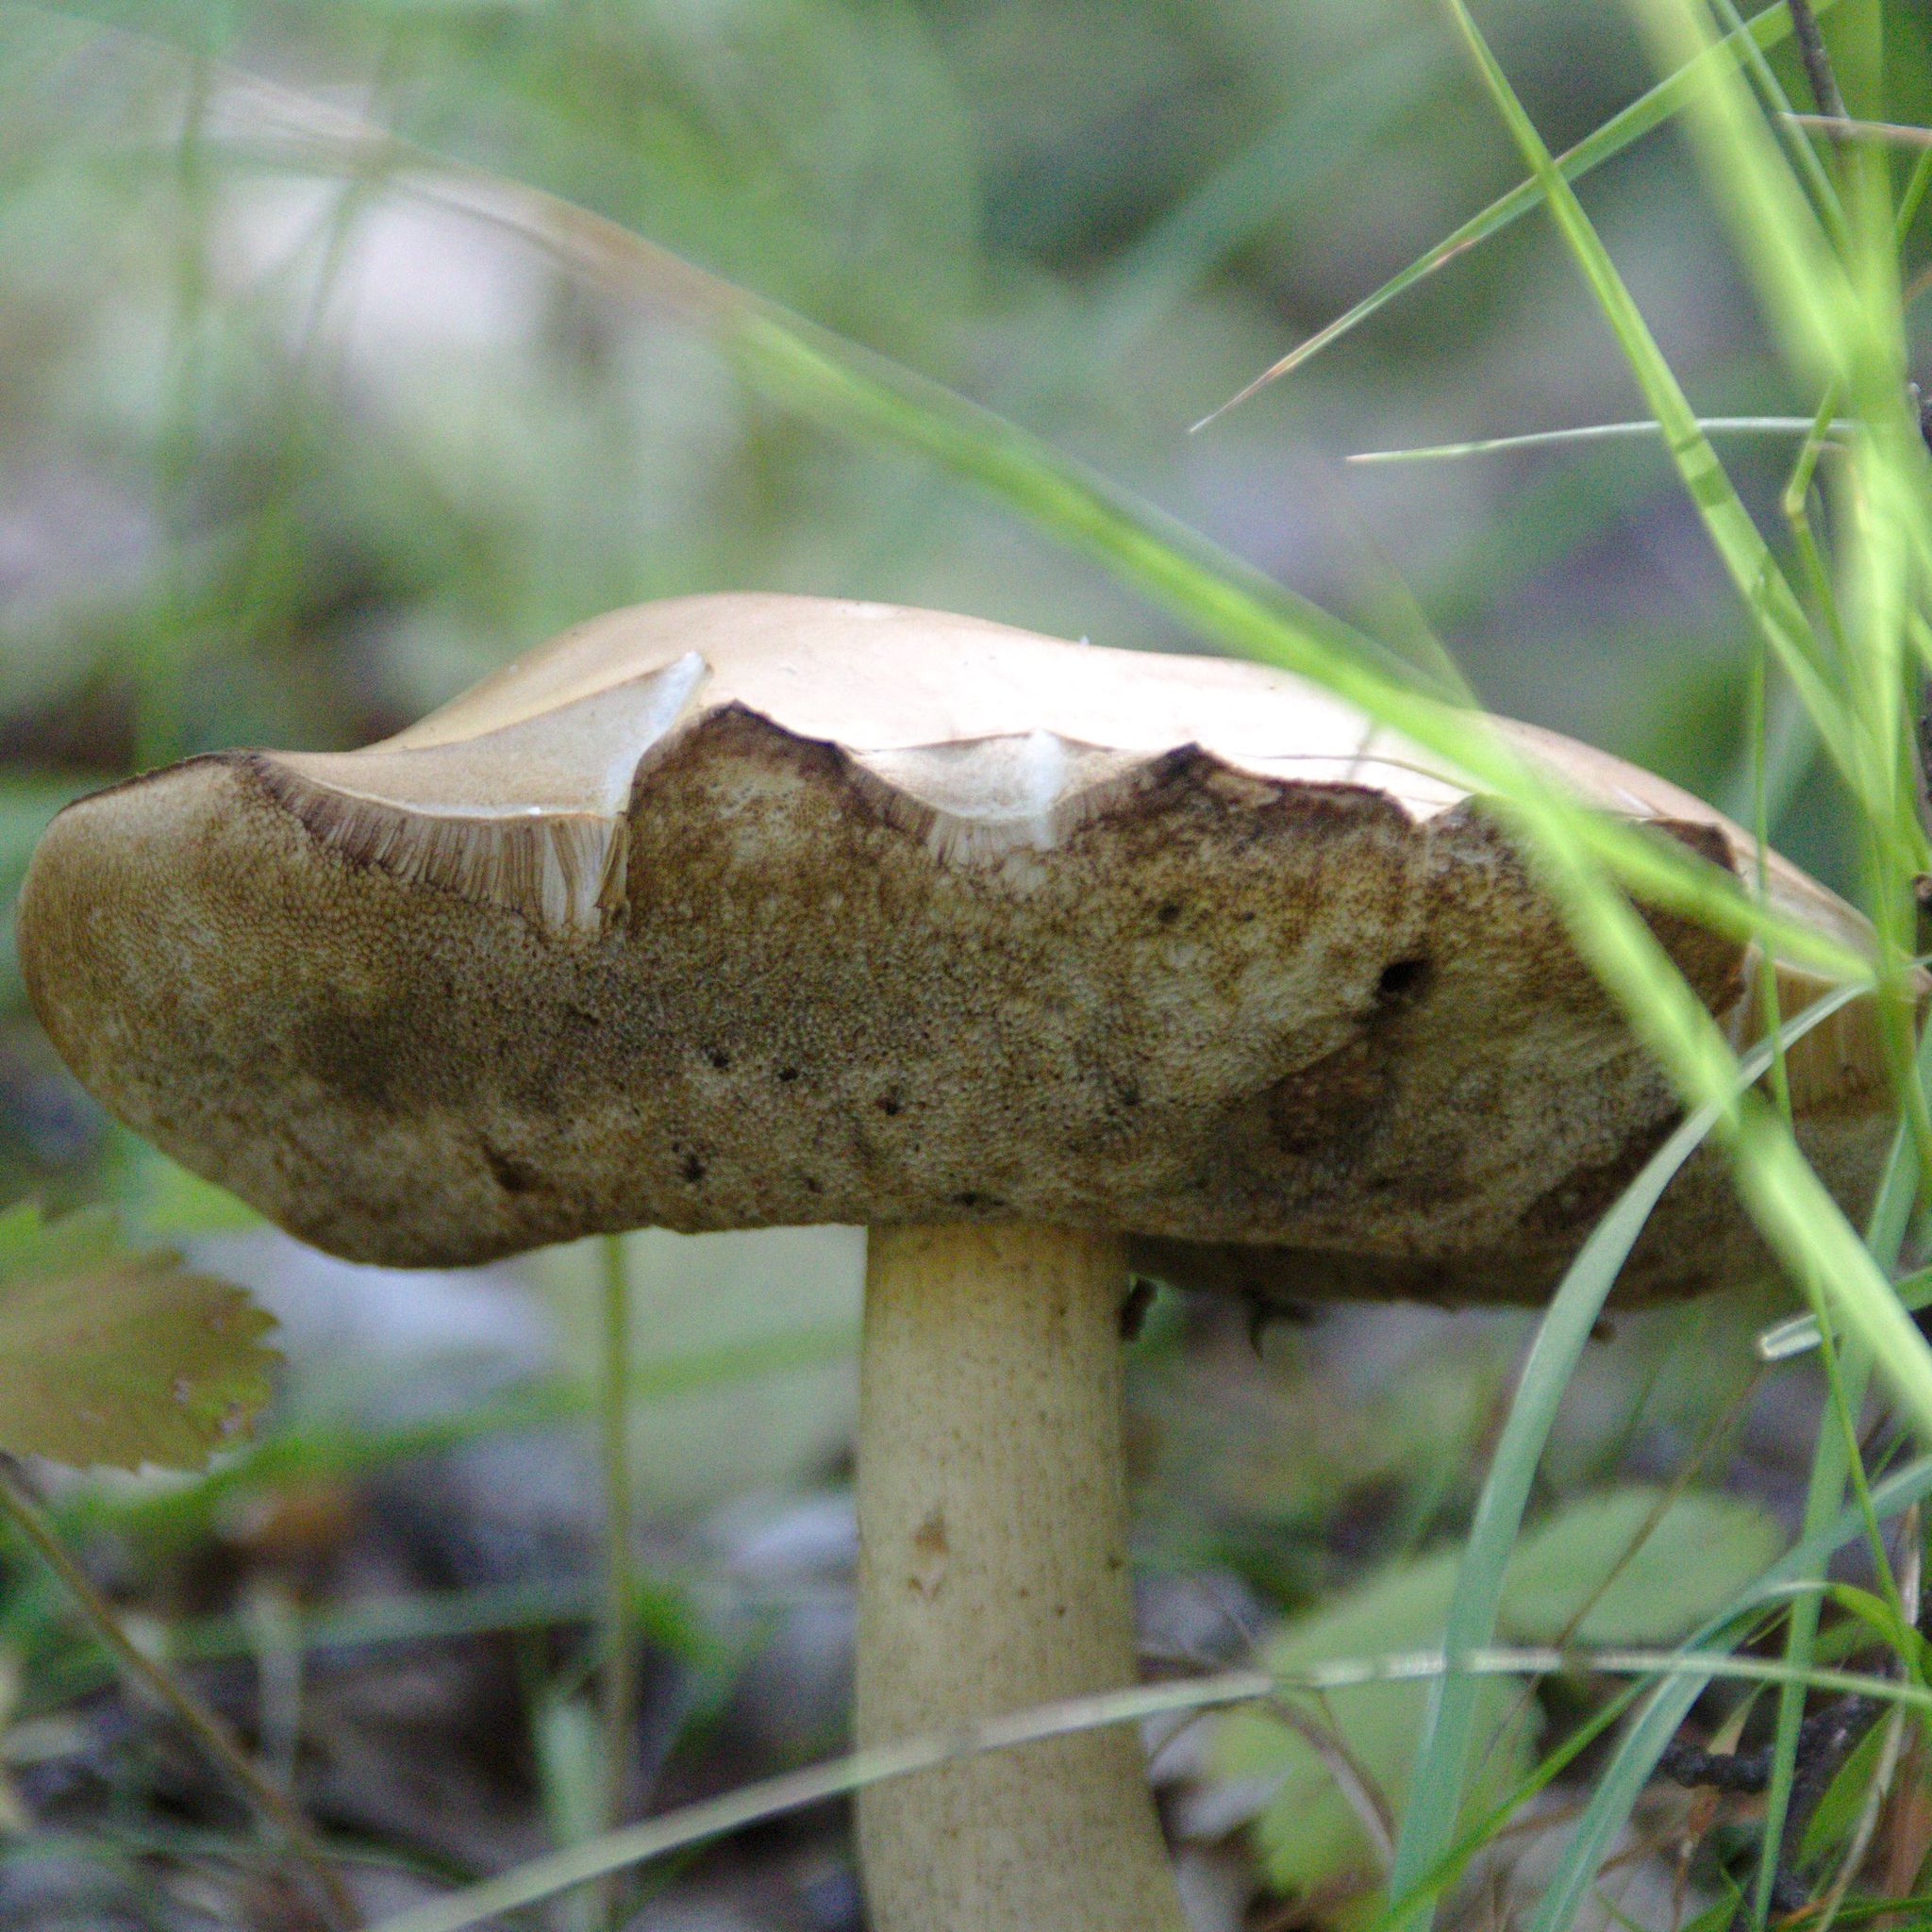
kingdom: Fungi
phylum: Basidiomycota
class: Agaricomycetes
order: Boletales
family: Boletaceae
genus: Leccinum
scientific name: Leccinum scabrum
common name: Blushing bolete
